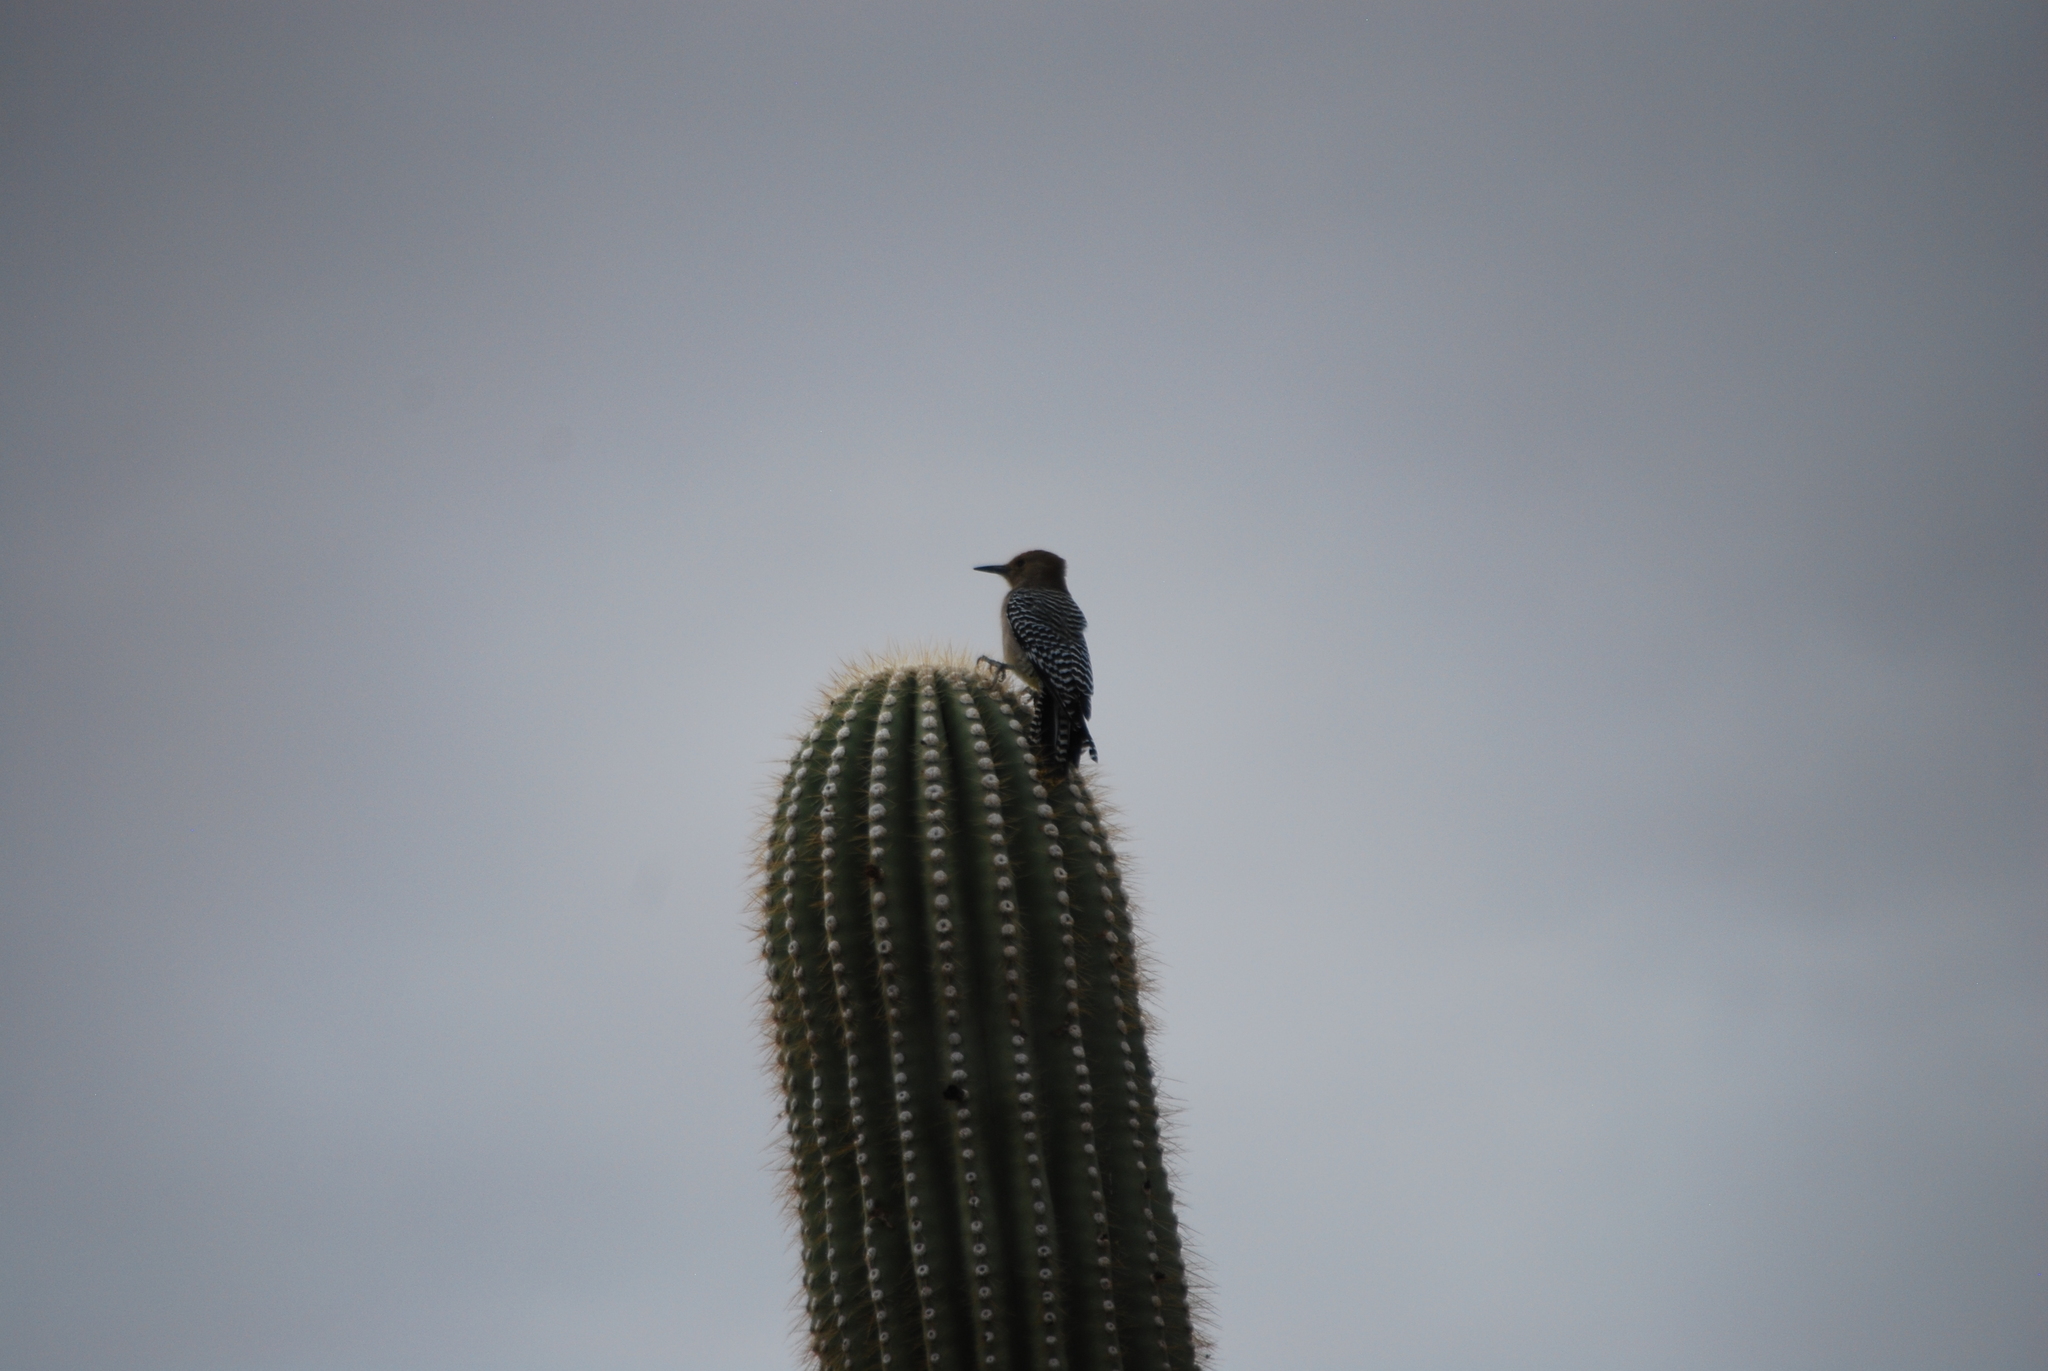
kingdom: Animalia
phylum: Chordata
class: Aves
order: Piciformes
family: Picidae
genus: Melanerpes
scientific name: Melanerpes uropygialis
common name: Gila woodpecker
